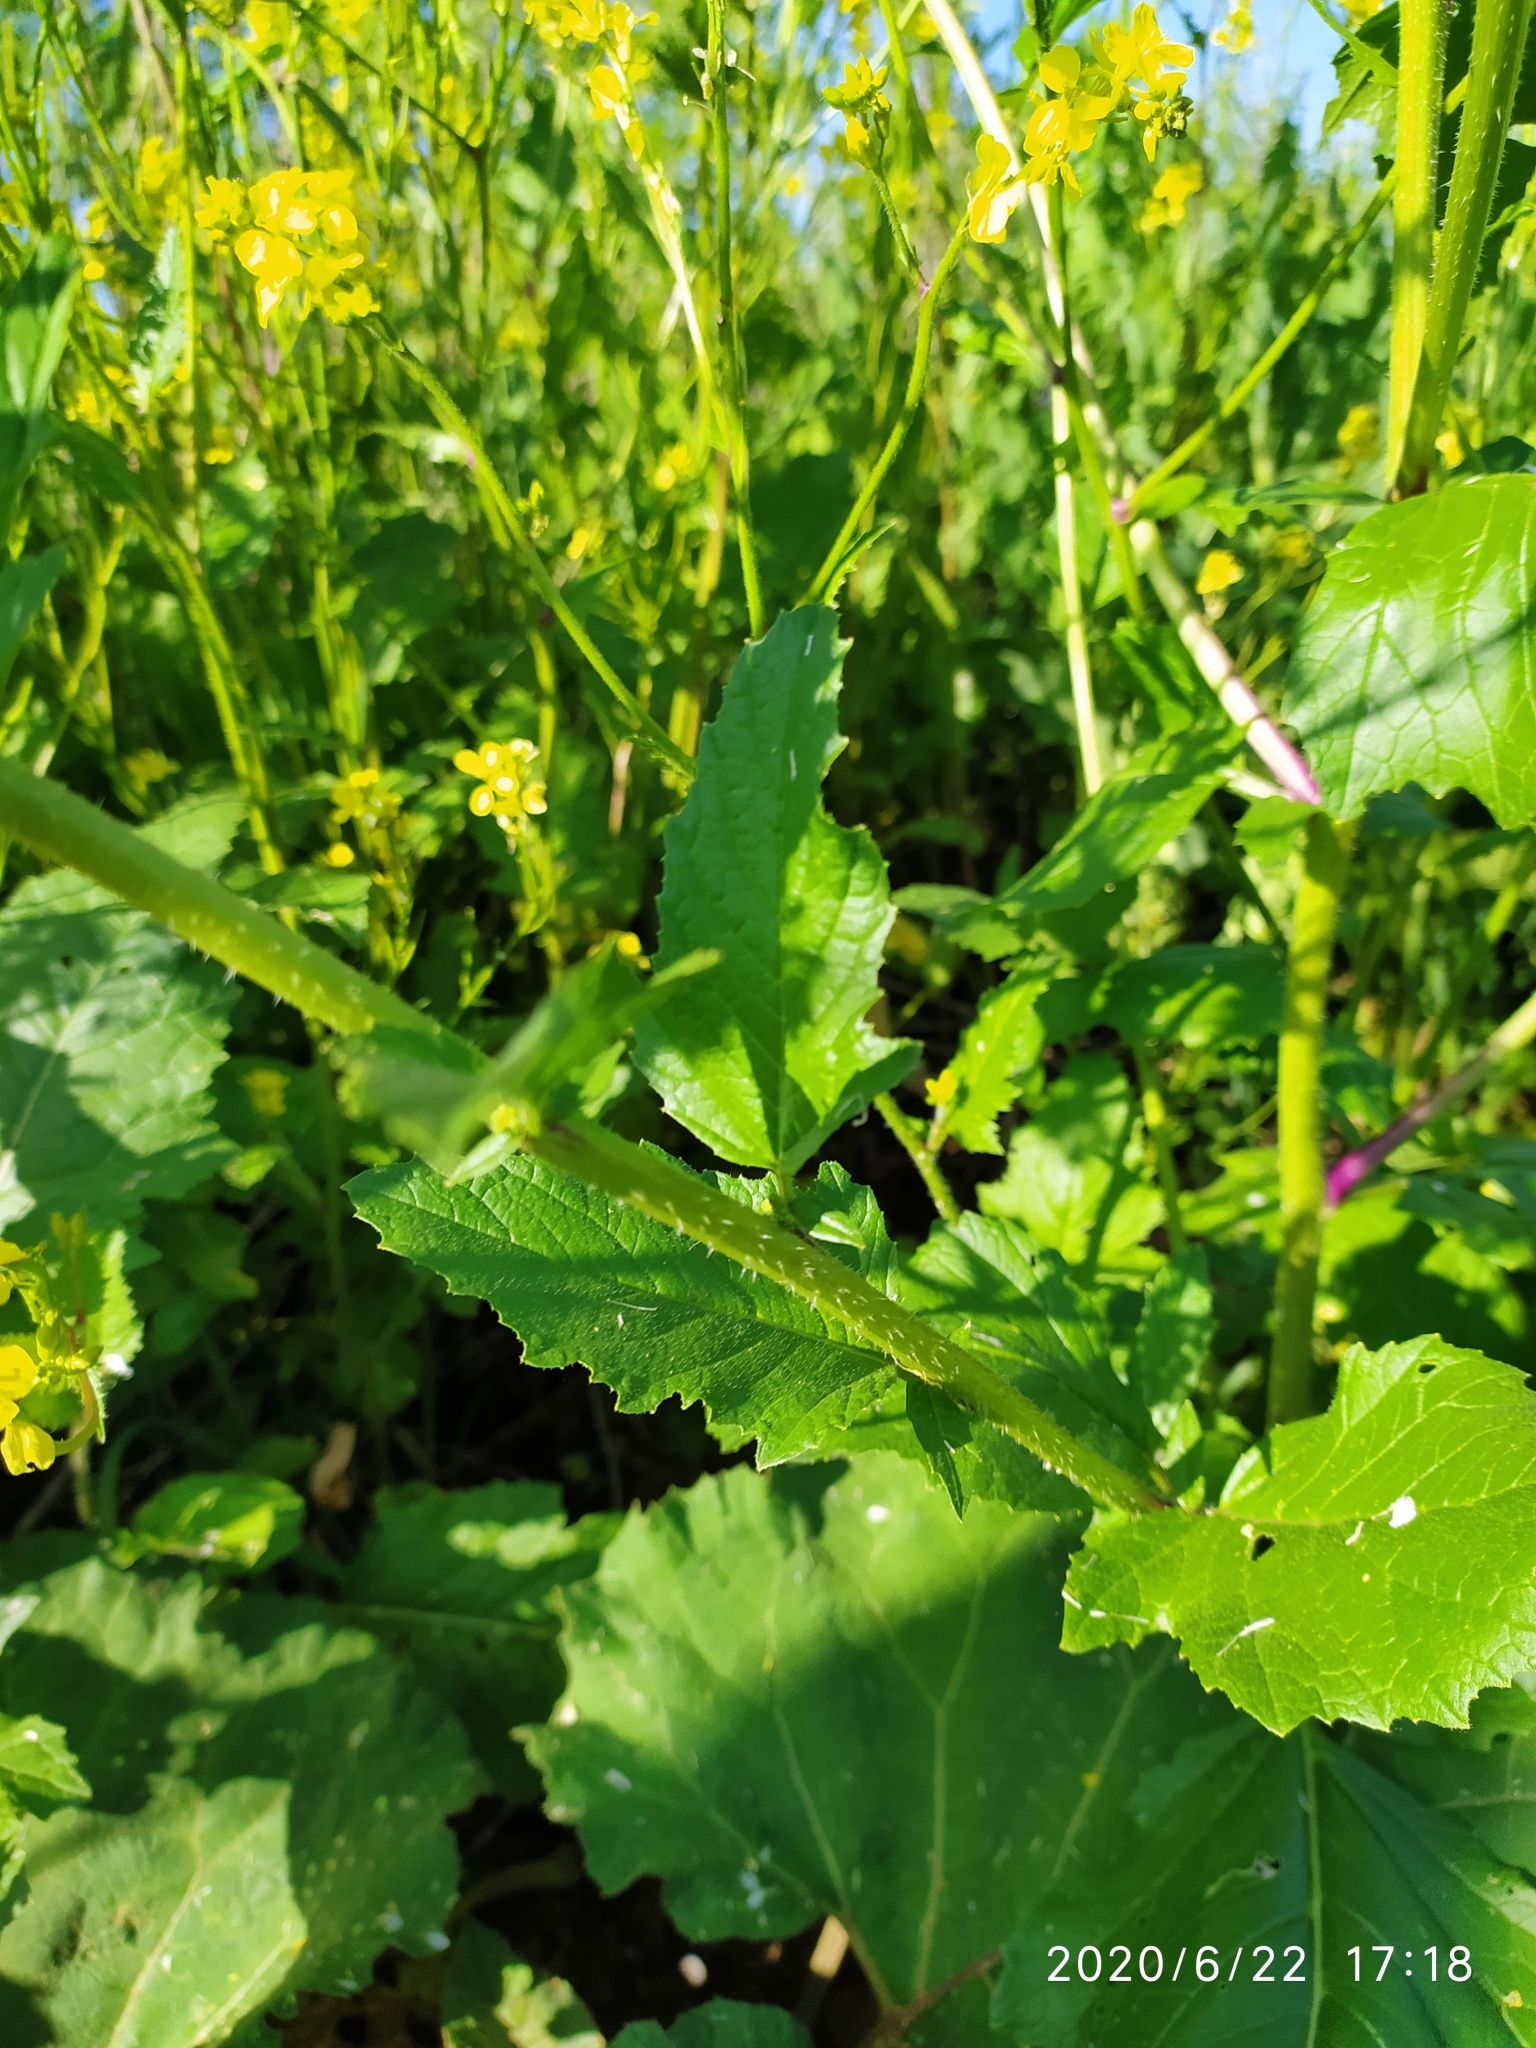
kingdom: Plantae
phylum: Tracheophyta
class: Magnoliopsida
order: Brassicales
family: Brassicaceae
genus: Sinapis
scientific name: Sinapis arvensis
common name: Charlock
